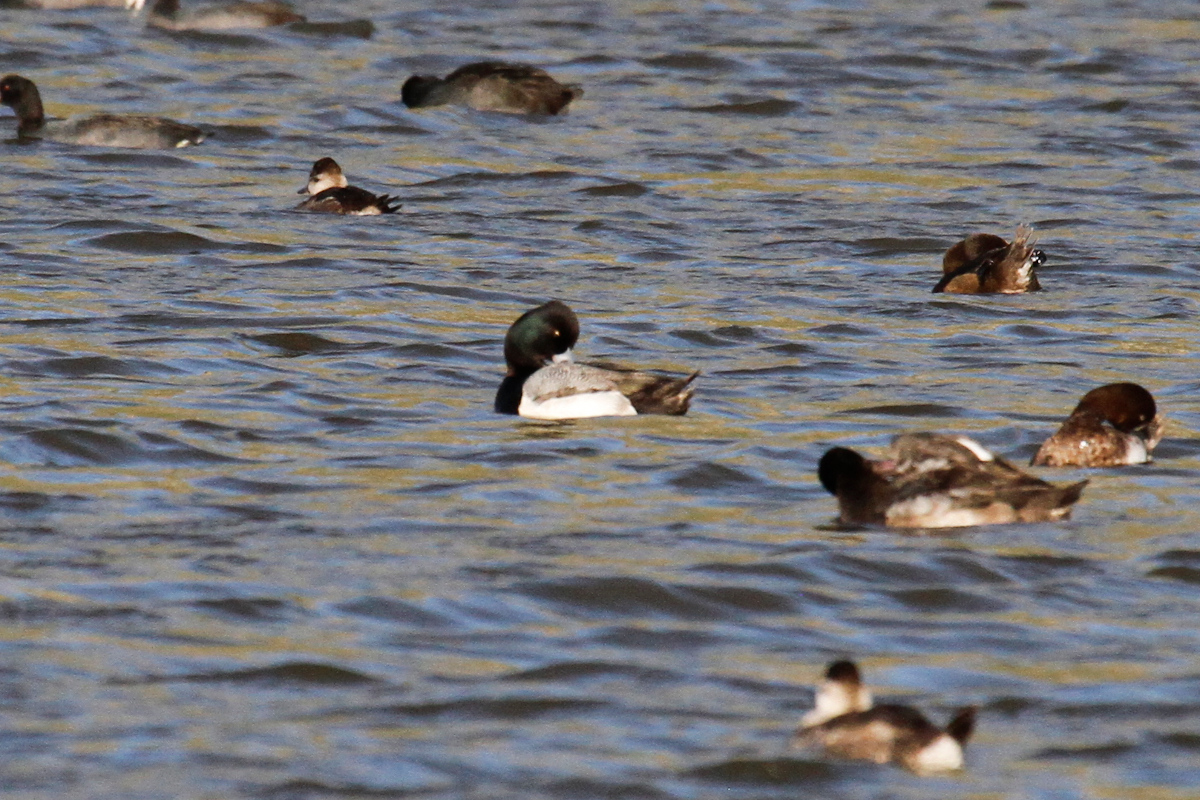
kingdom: Animalia
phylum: Chordata
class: Aves
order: Anseriformes
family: Anatidae
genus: Aythya
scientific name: Aythya affinis
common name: Lesser scaup
